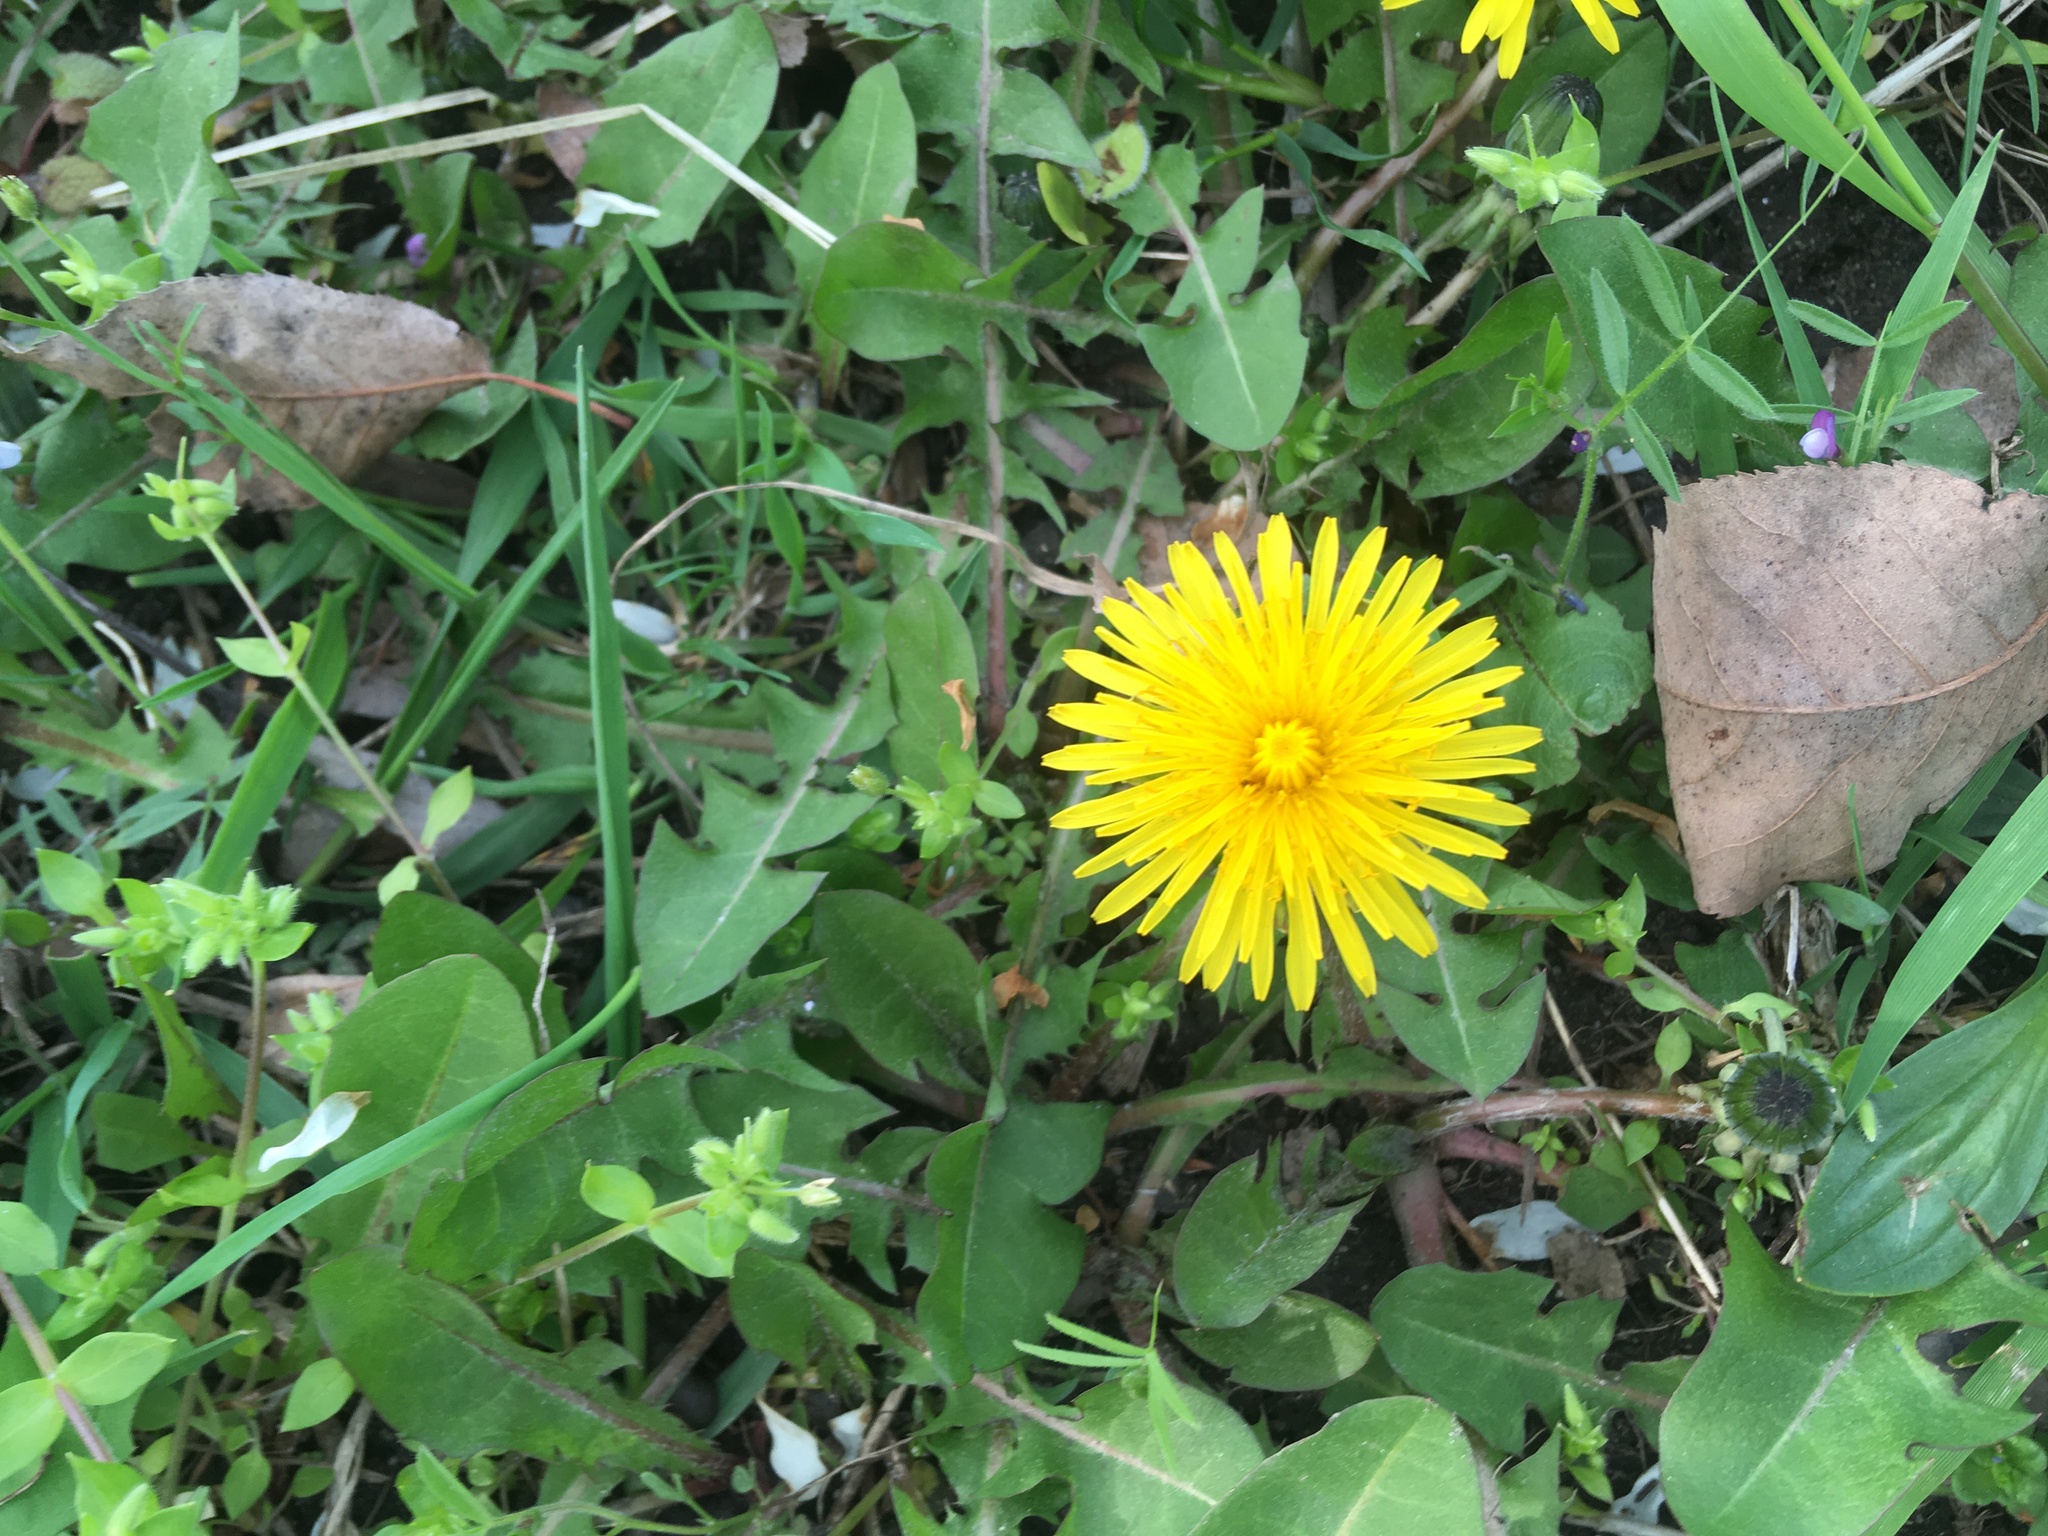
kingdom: Plantae
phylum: Tracheophyta
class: Magnoliopsida
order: Asterales
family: Asteraceae
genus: Taraxacum
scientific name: Taraxacum officinale
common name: Common dandelion
